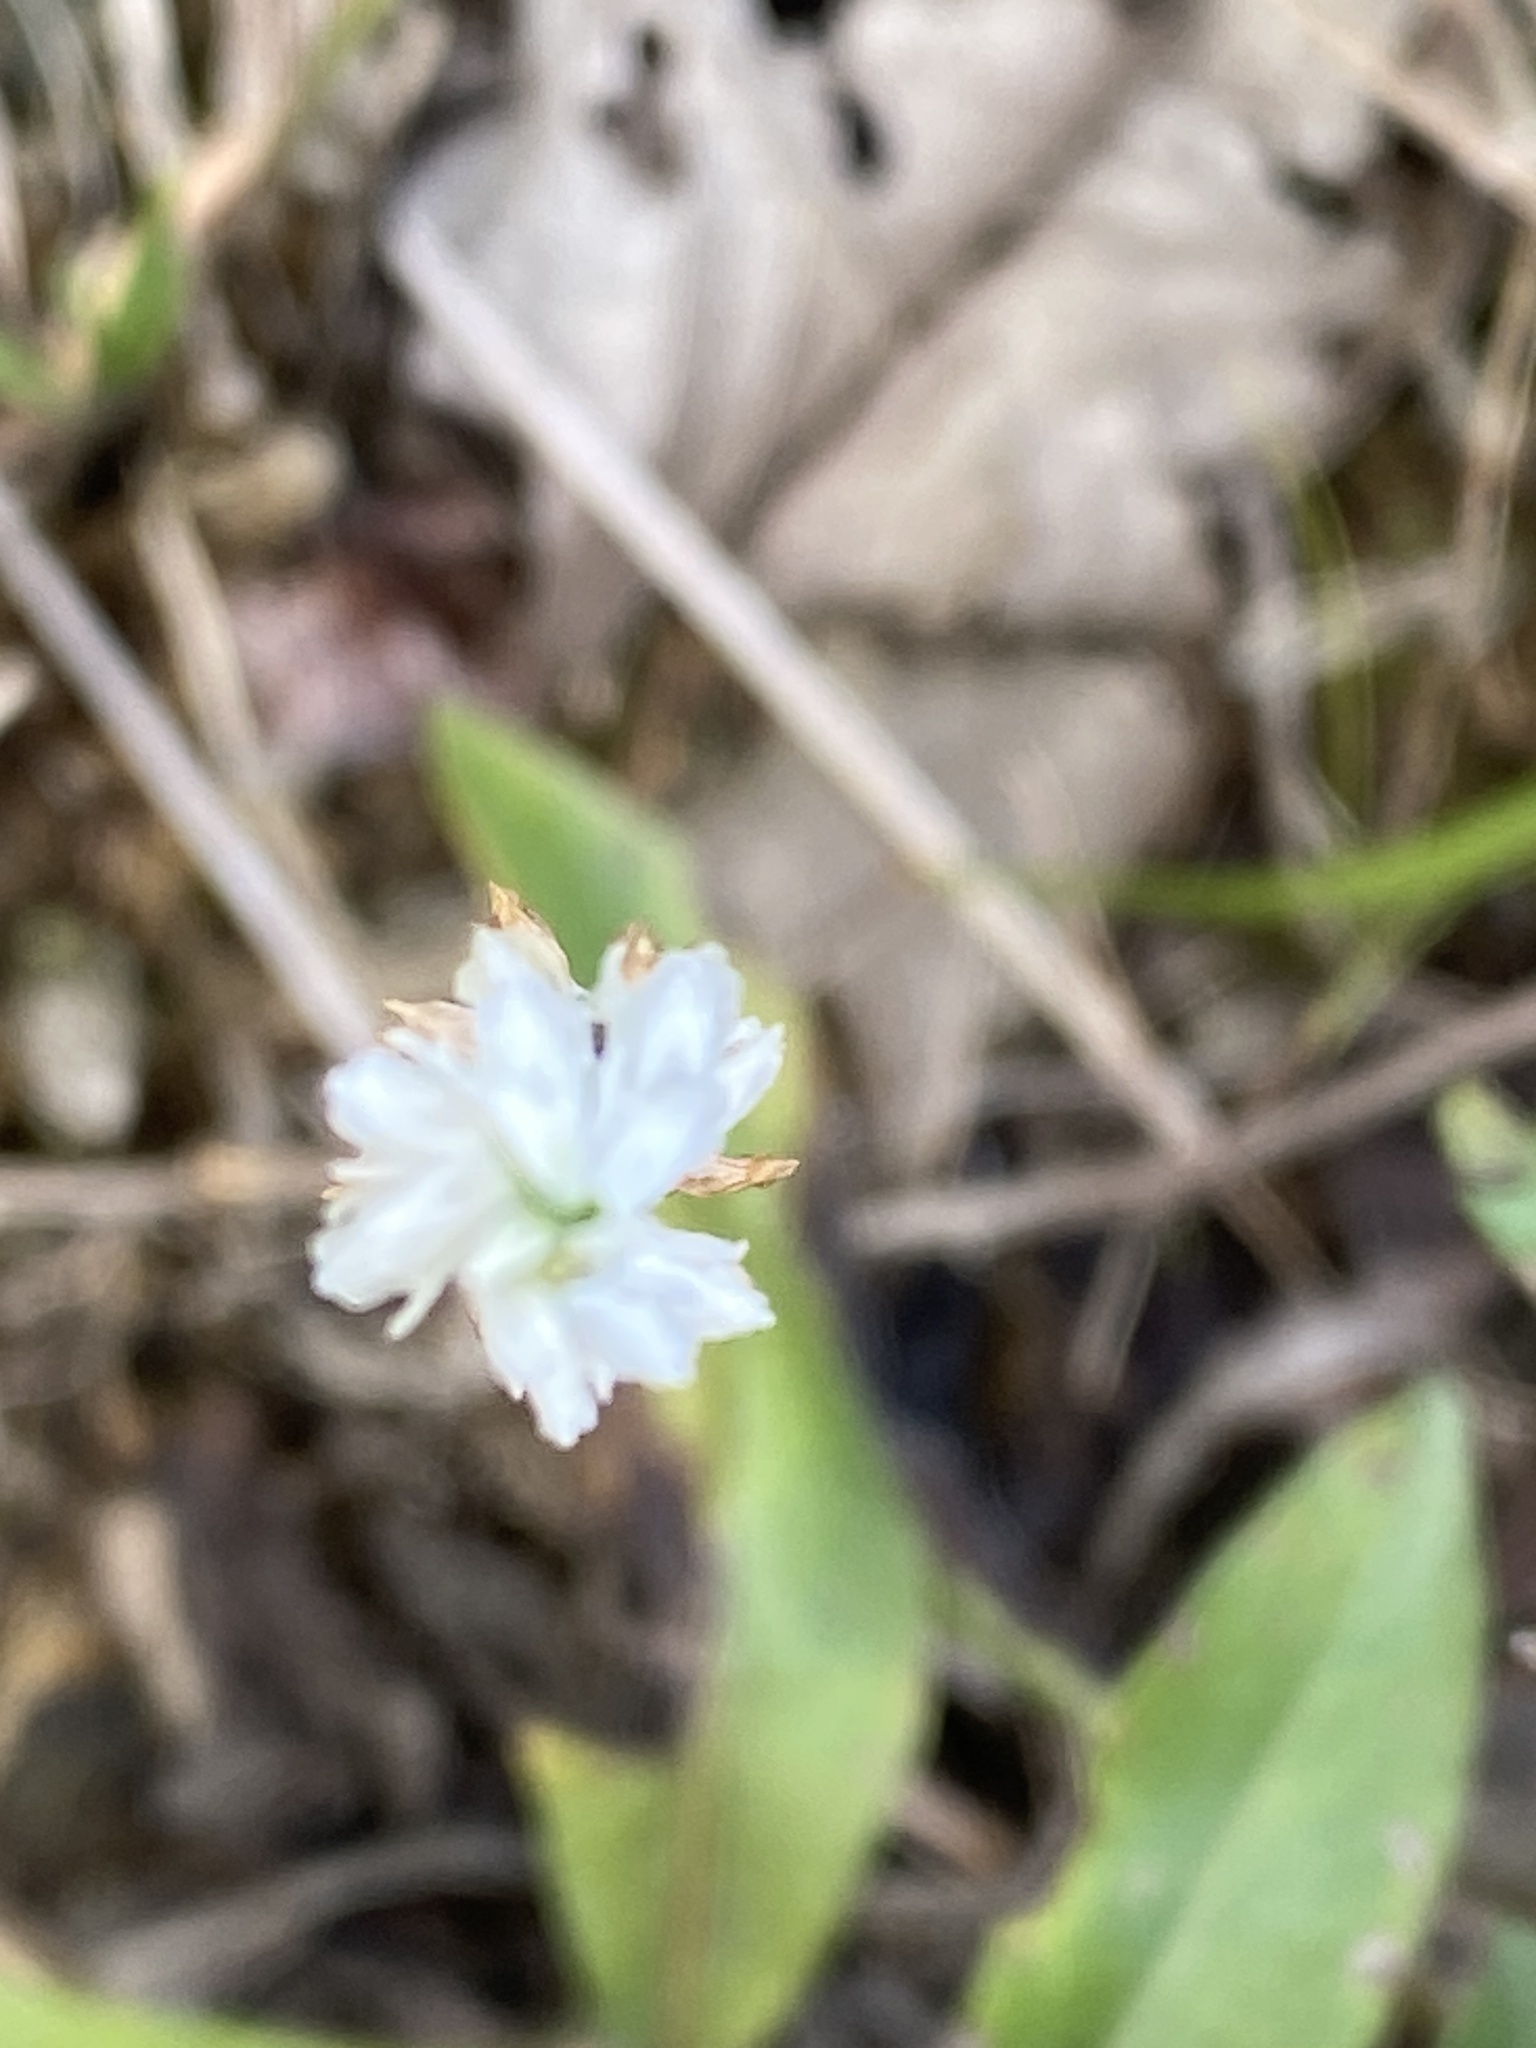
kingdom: Plantae
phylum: Tracheophyta
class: Liliopsida
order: Asparagales
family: Orchidaceae
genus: Spiranthes
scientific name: Spiranthes tuberosa
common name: Little ladies'-tresses
